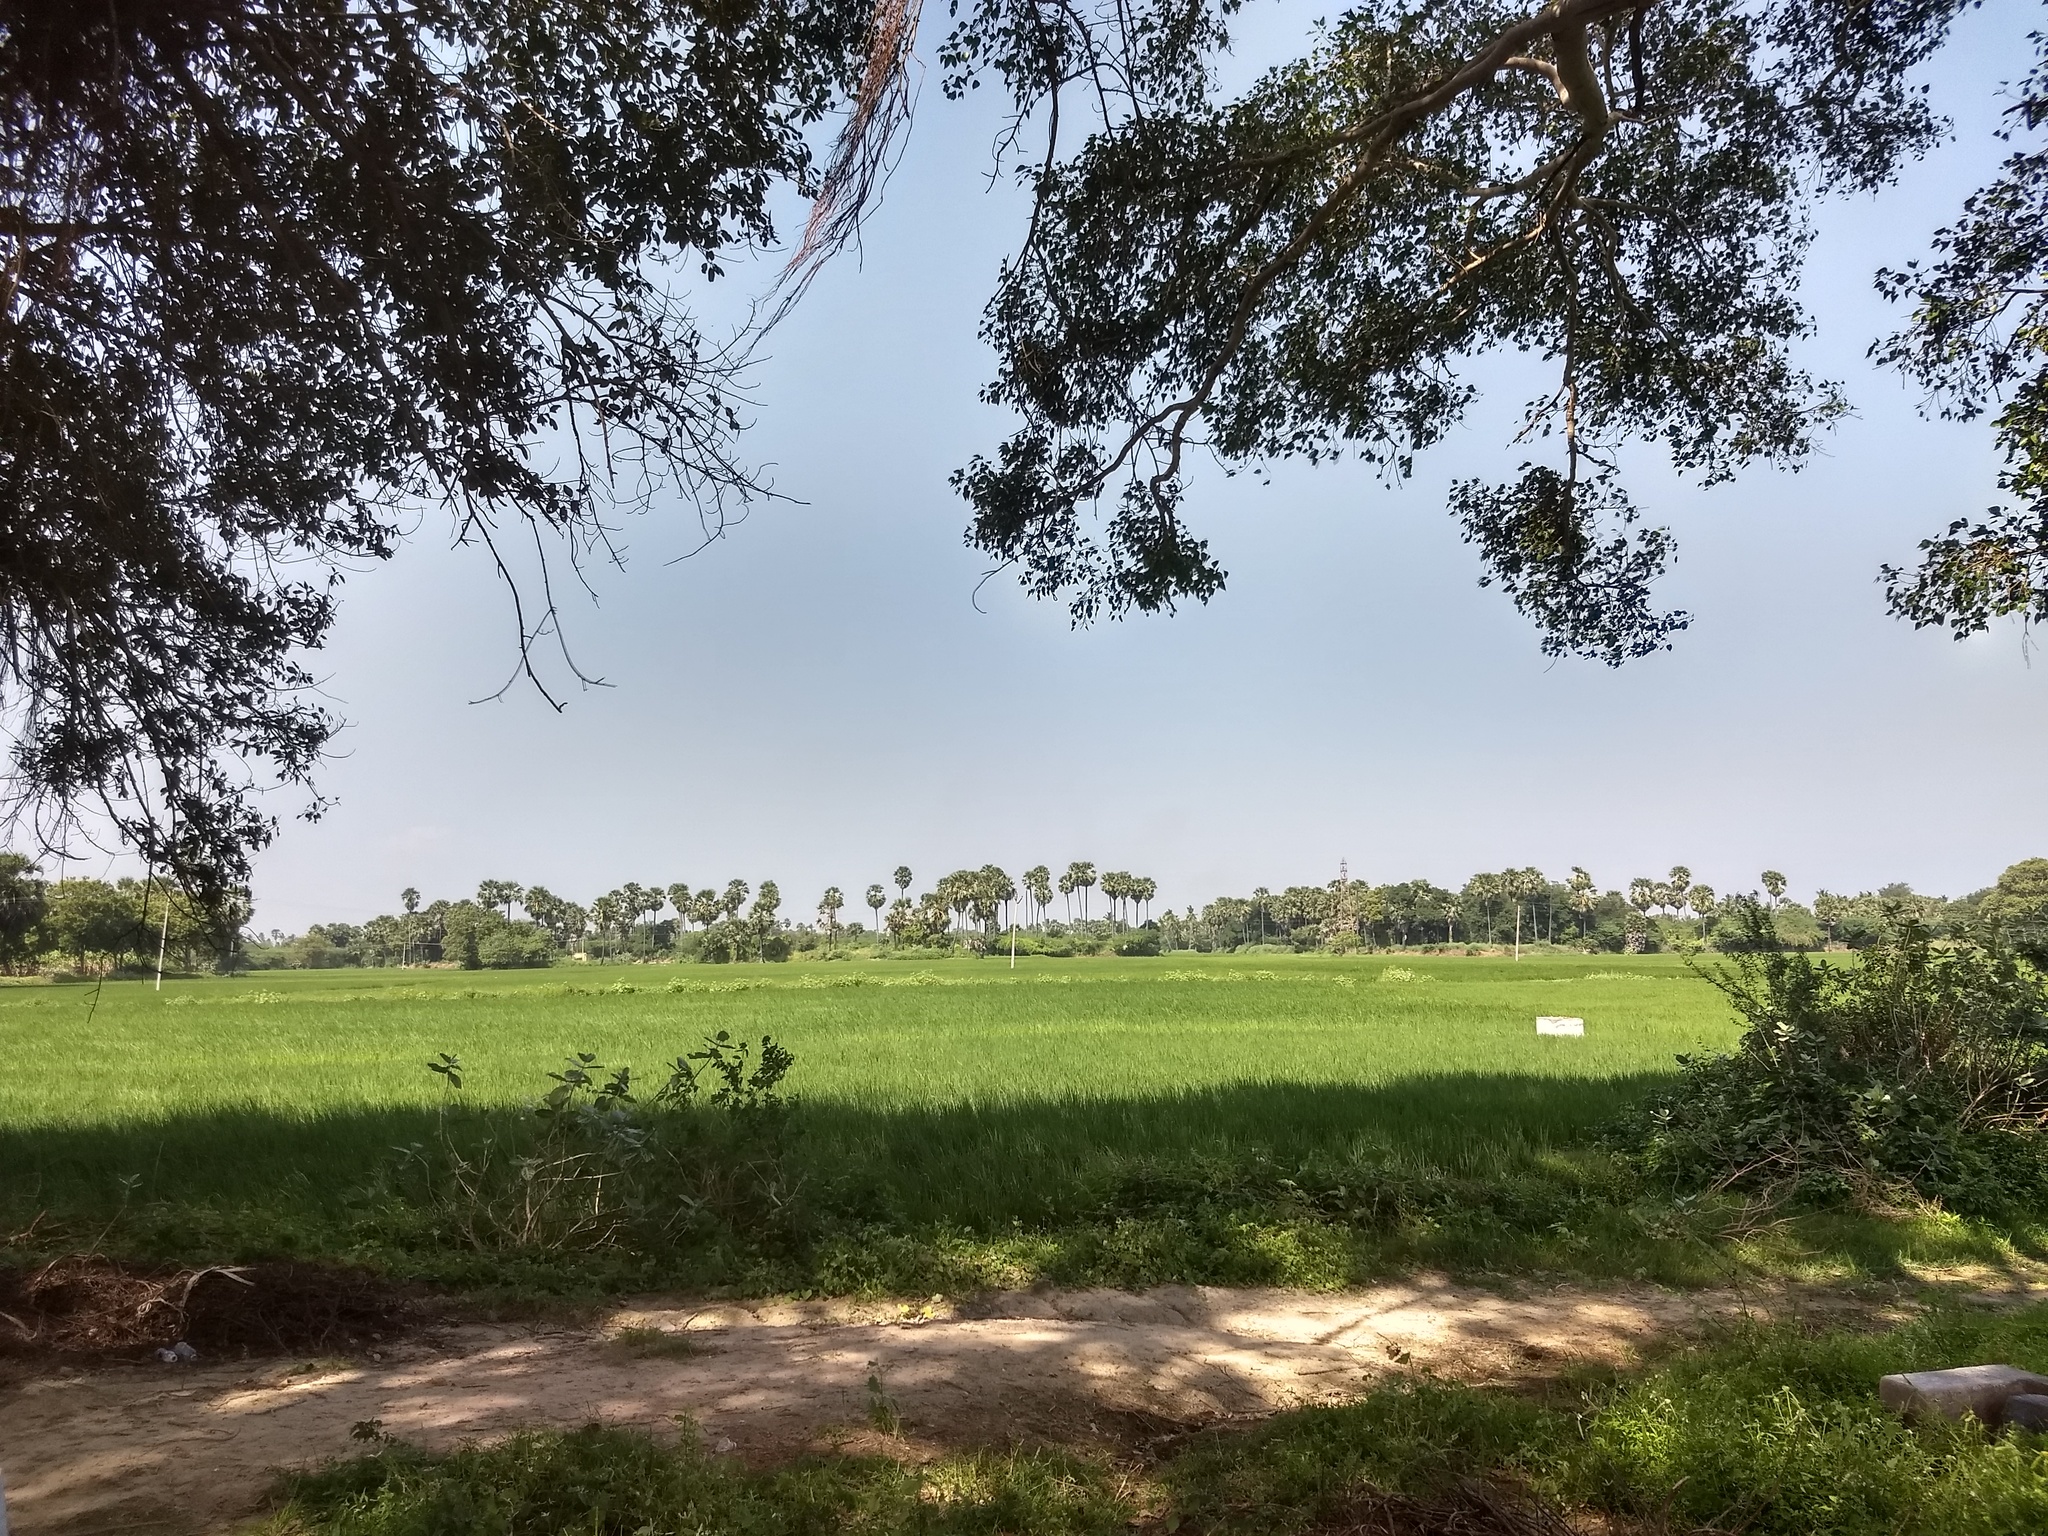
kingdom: Plantae
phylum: Tracheophyta
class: Magnoliopsida
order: Rosales
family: Moraceae
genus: Ficus
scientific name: Ficus religiosa
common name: Bodhi tree
